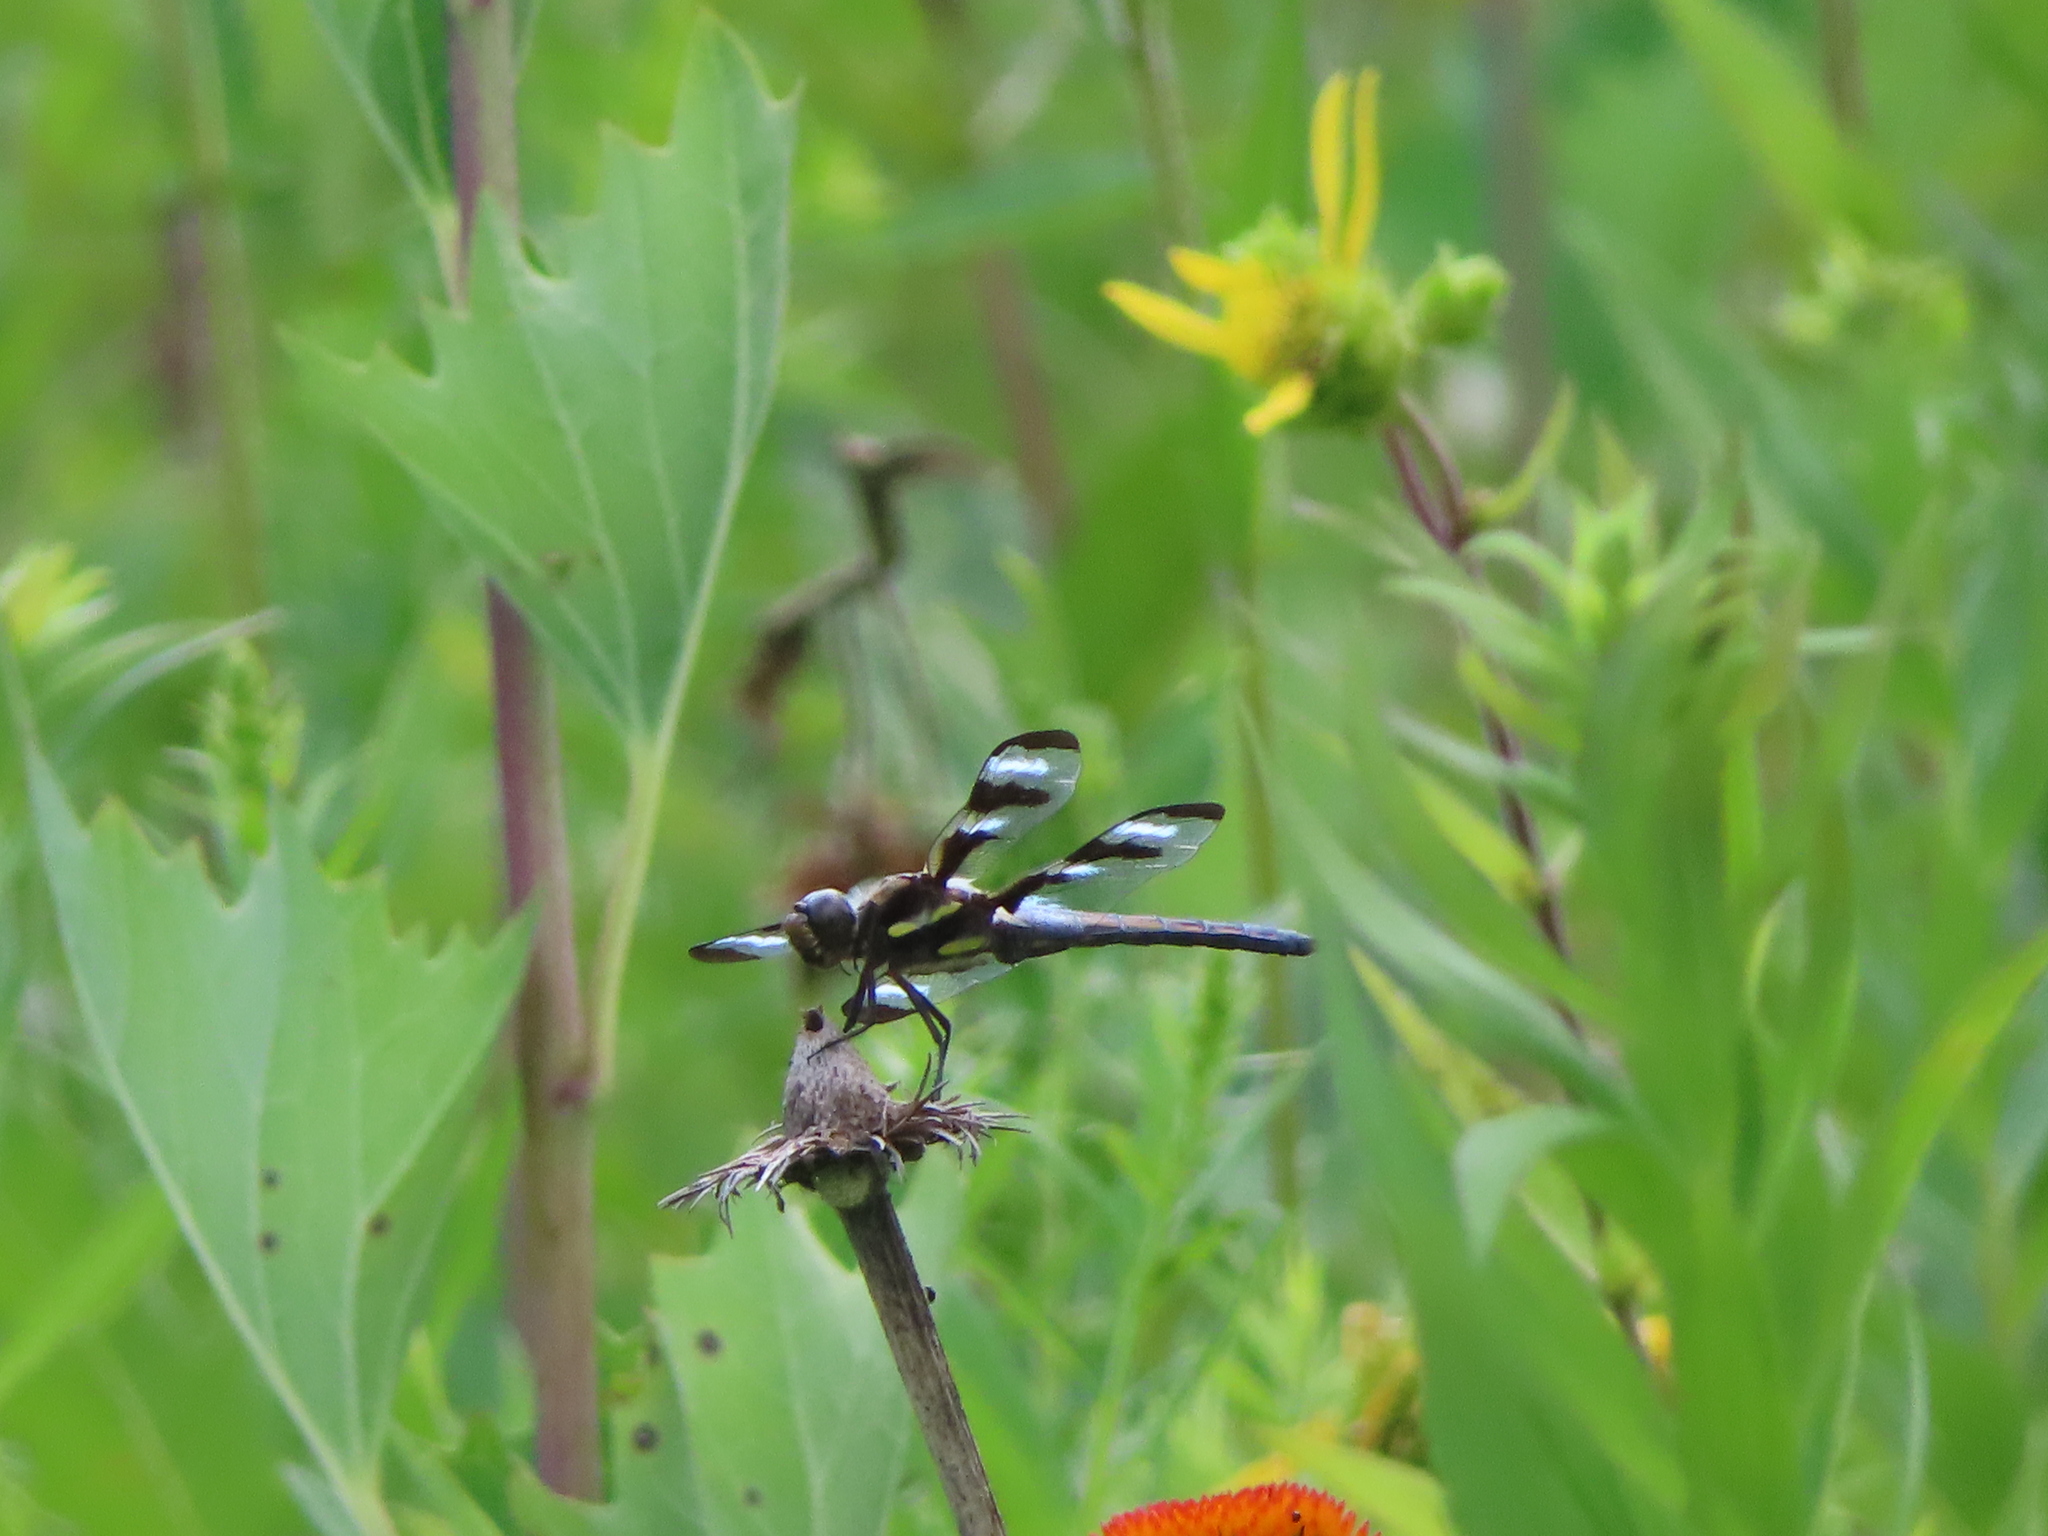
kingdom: Animalia
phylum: Arthropoda
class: Insecta
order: Odonata
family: Libellulidae
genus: Libellula
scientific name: Libellula pulchella
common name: Twelve-spotted skimmer
